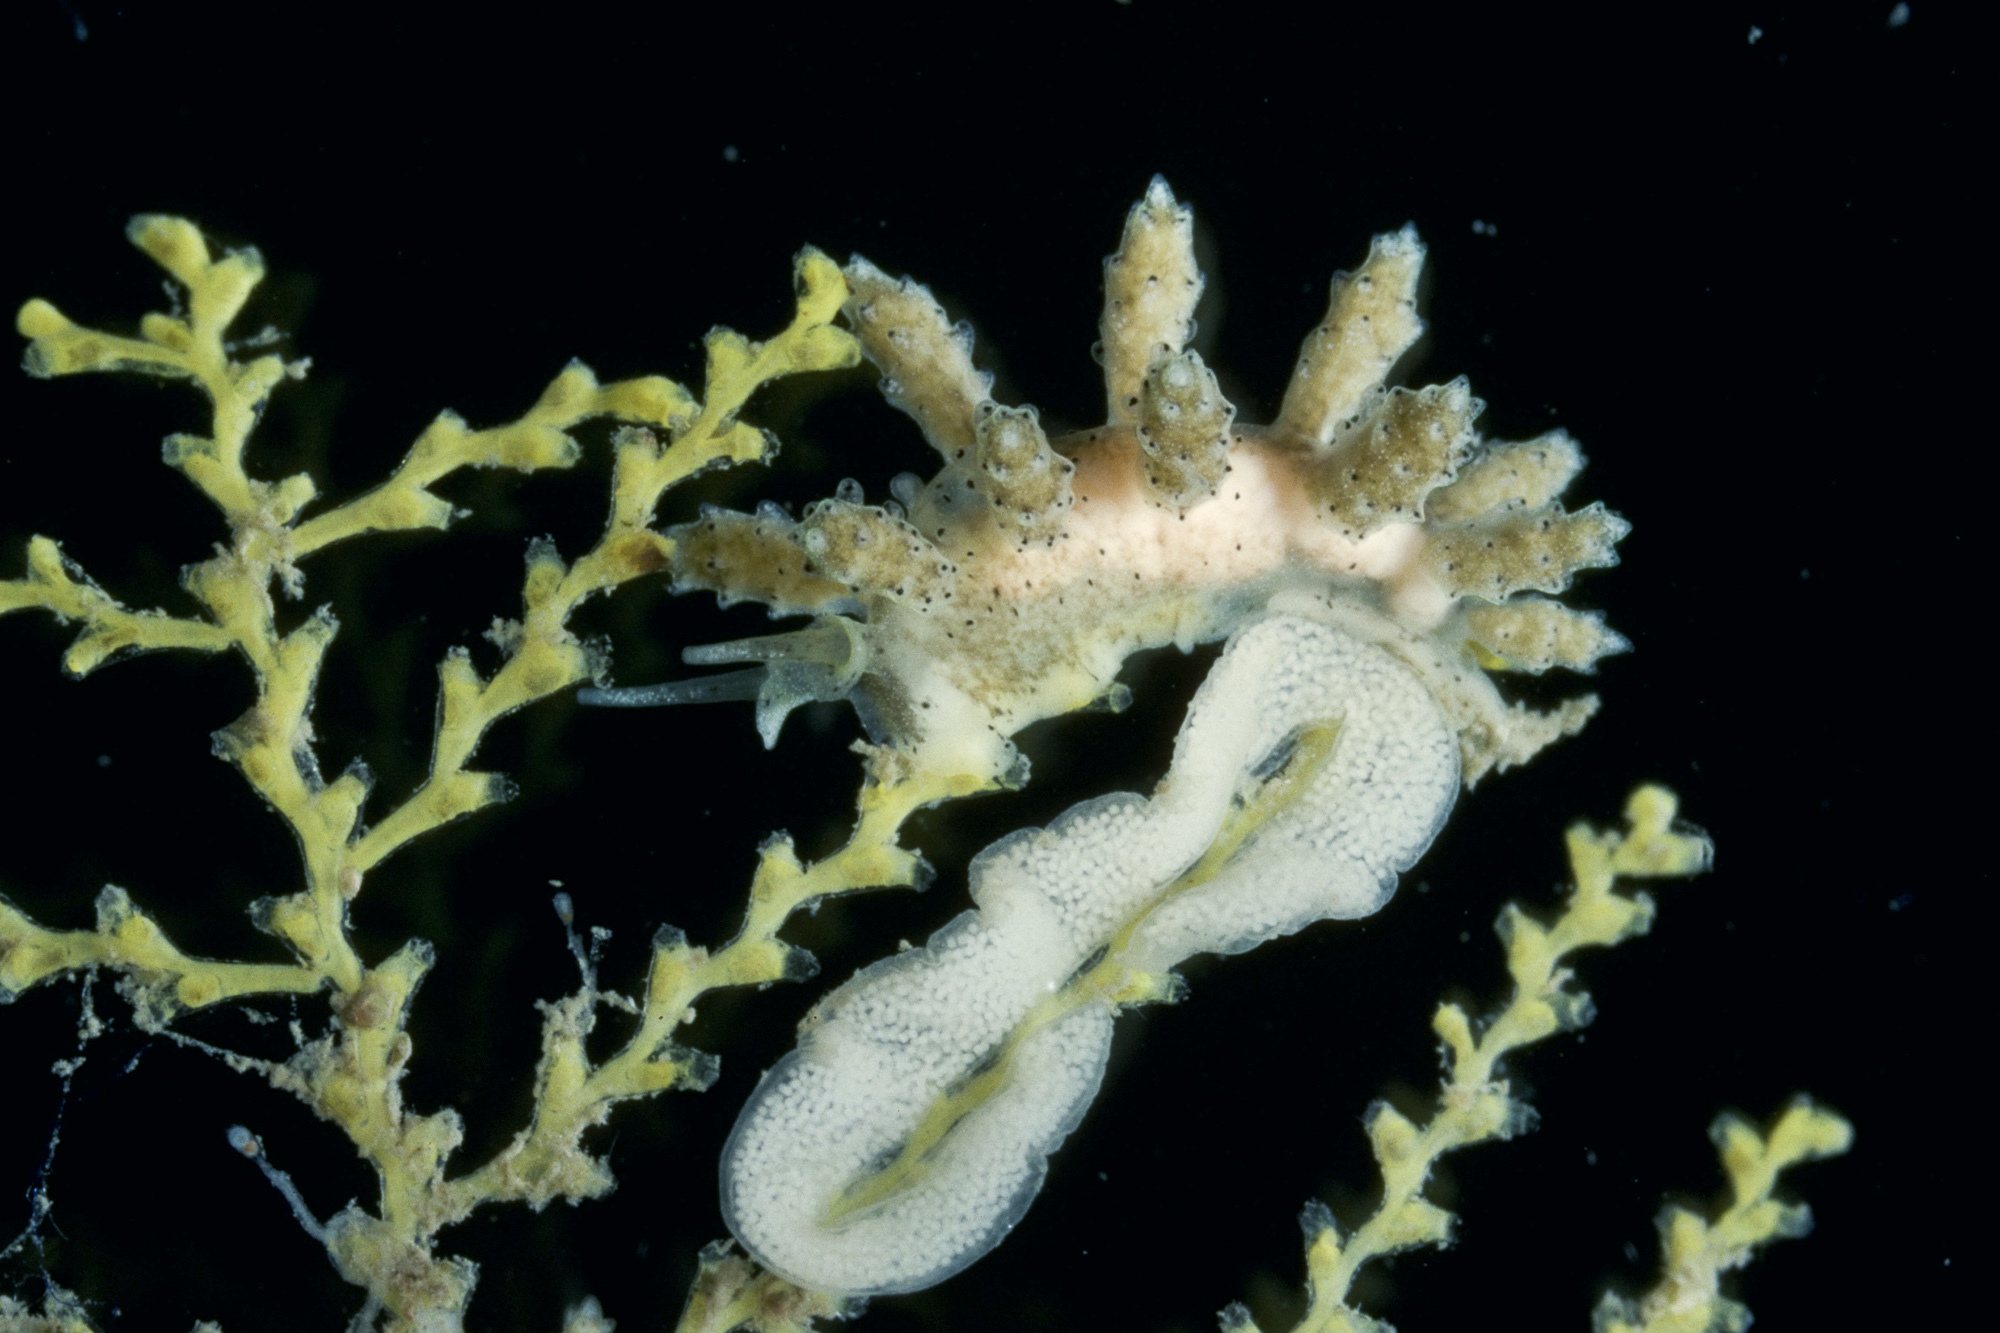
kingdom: Animalia
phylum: Mollusca
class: Gastropoda
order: Nudibranchia
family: Dotidae
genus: Doto
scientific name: Doto tuberculata
